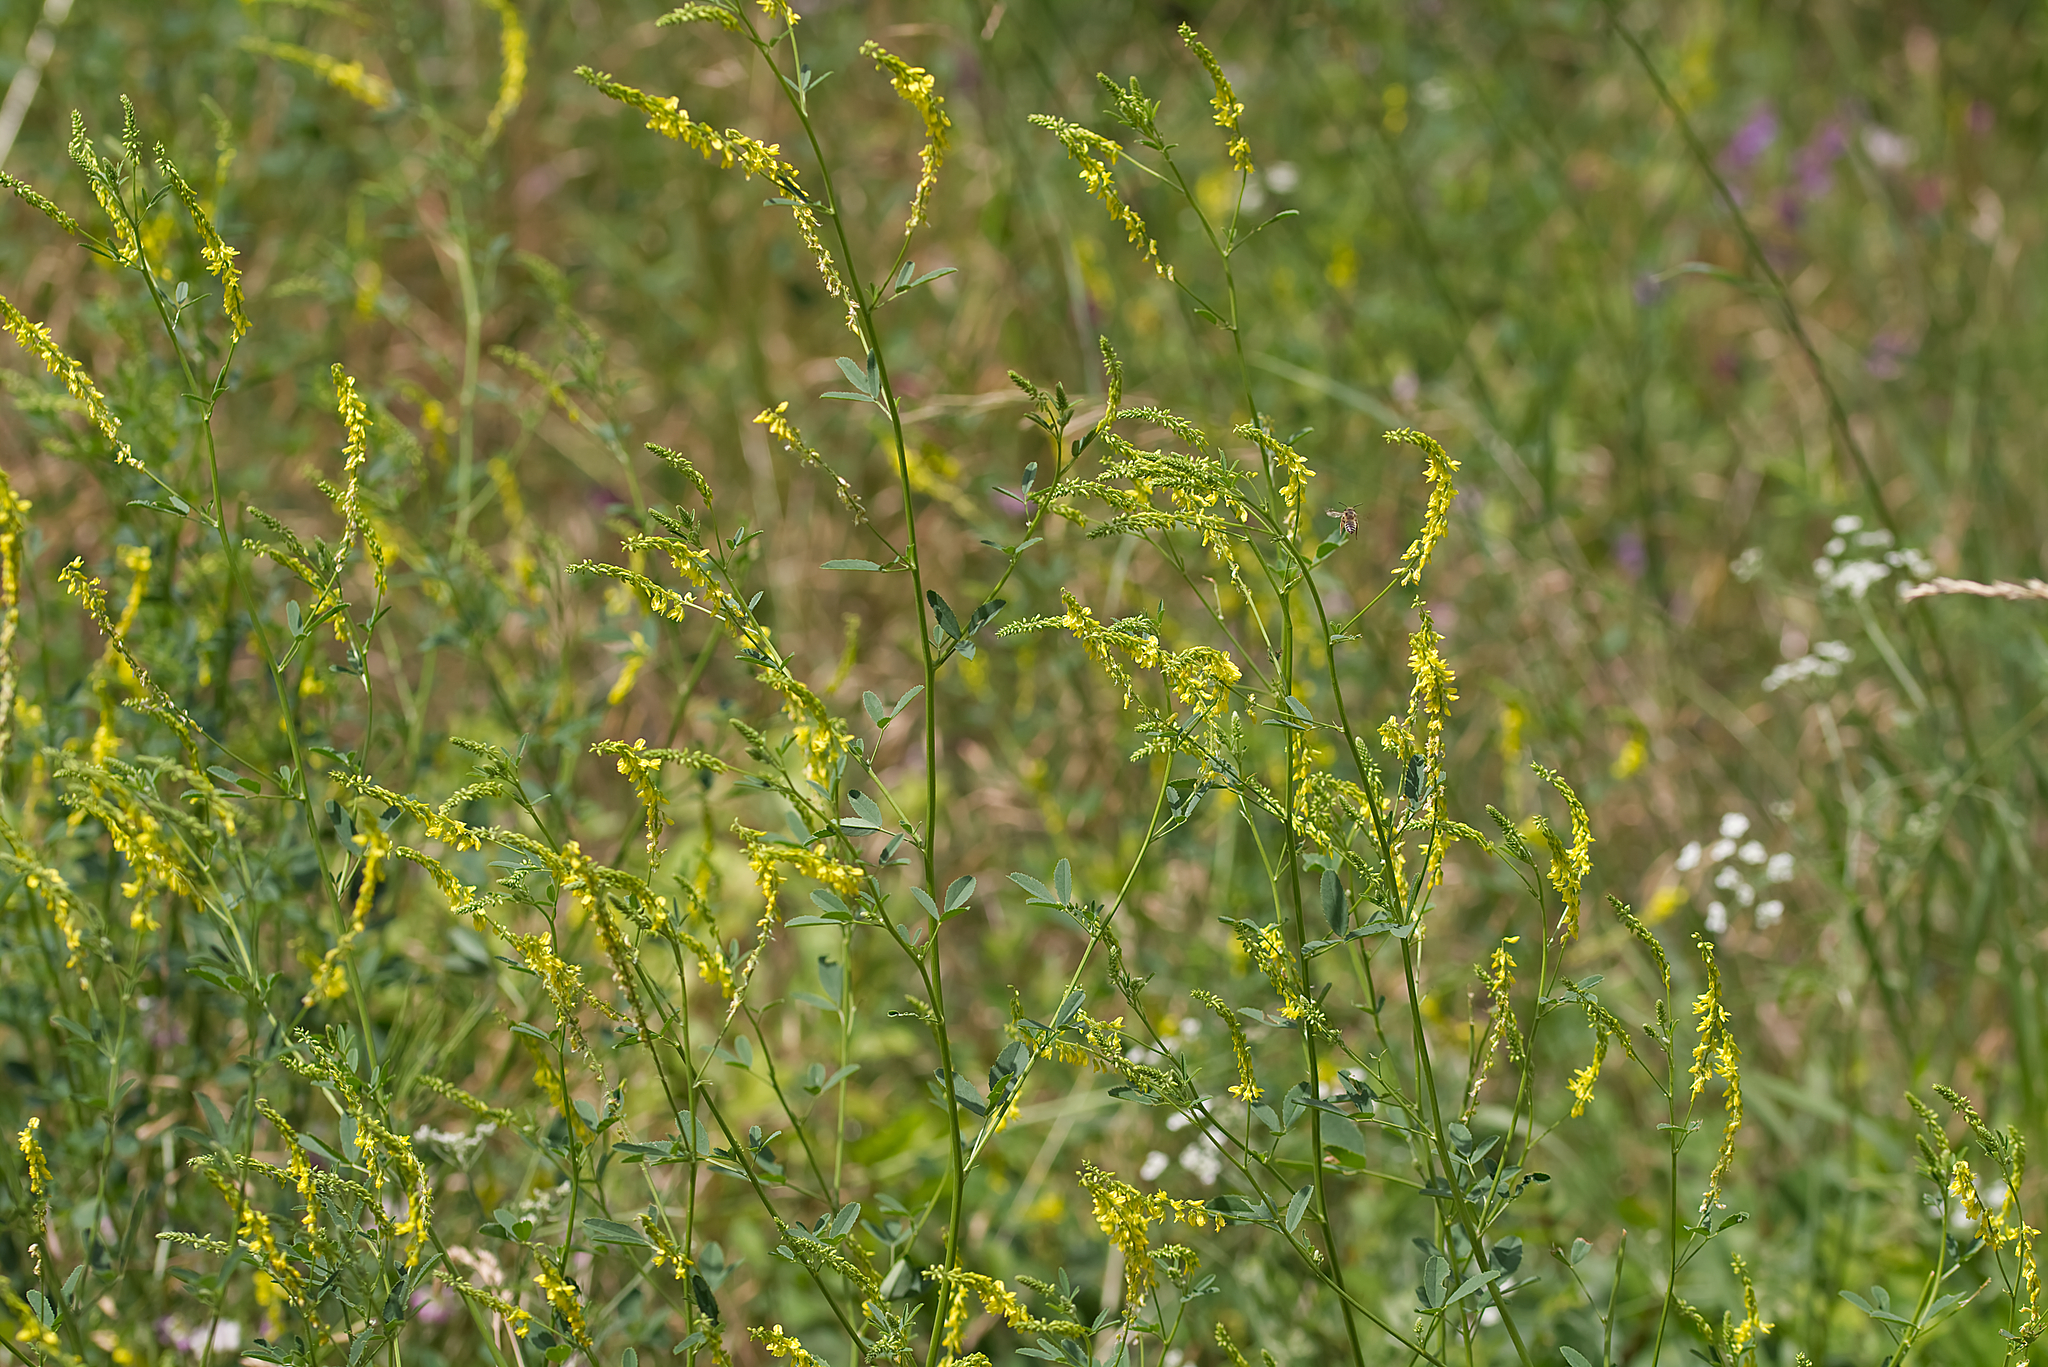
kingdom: Plantae
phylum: Tracheophyta
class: Magnoliopsida
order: Fabales
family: Fabaceae
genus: Melilotus
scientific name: Melilotus officinalis
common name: Sweetclover
